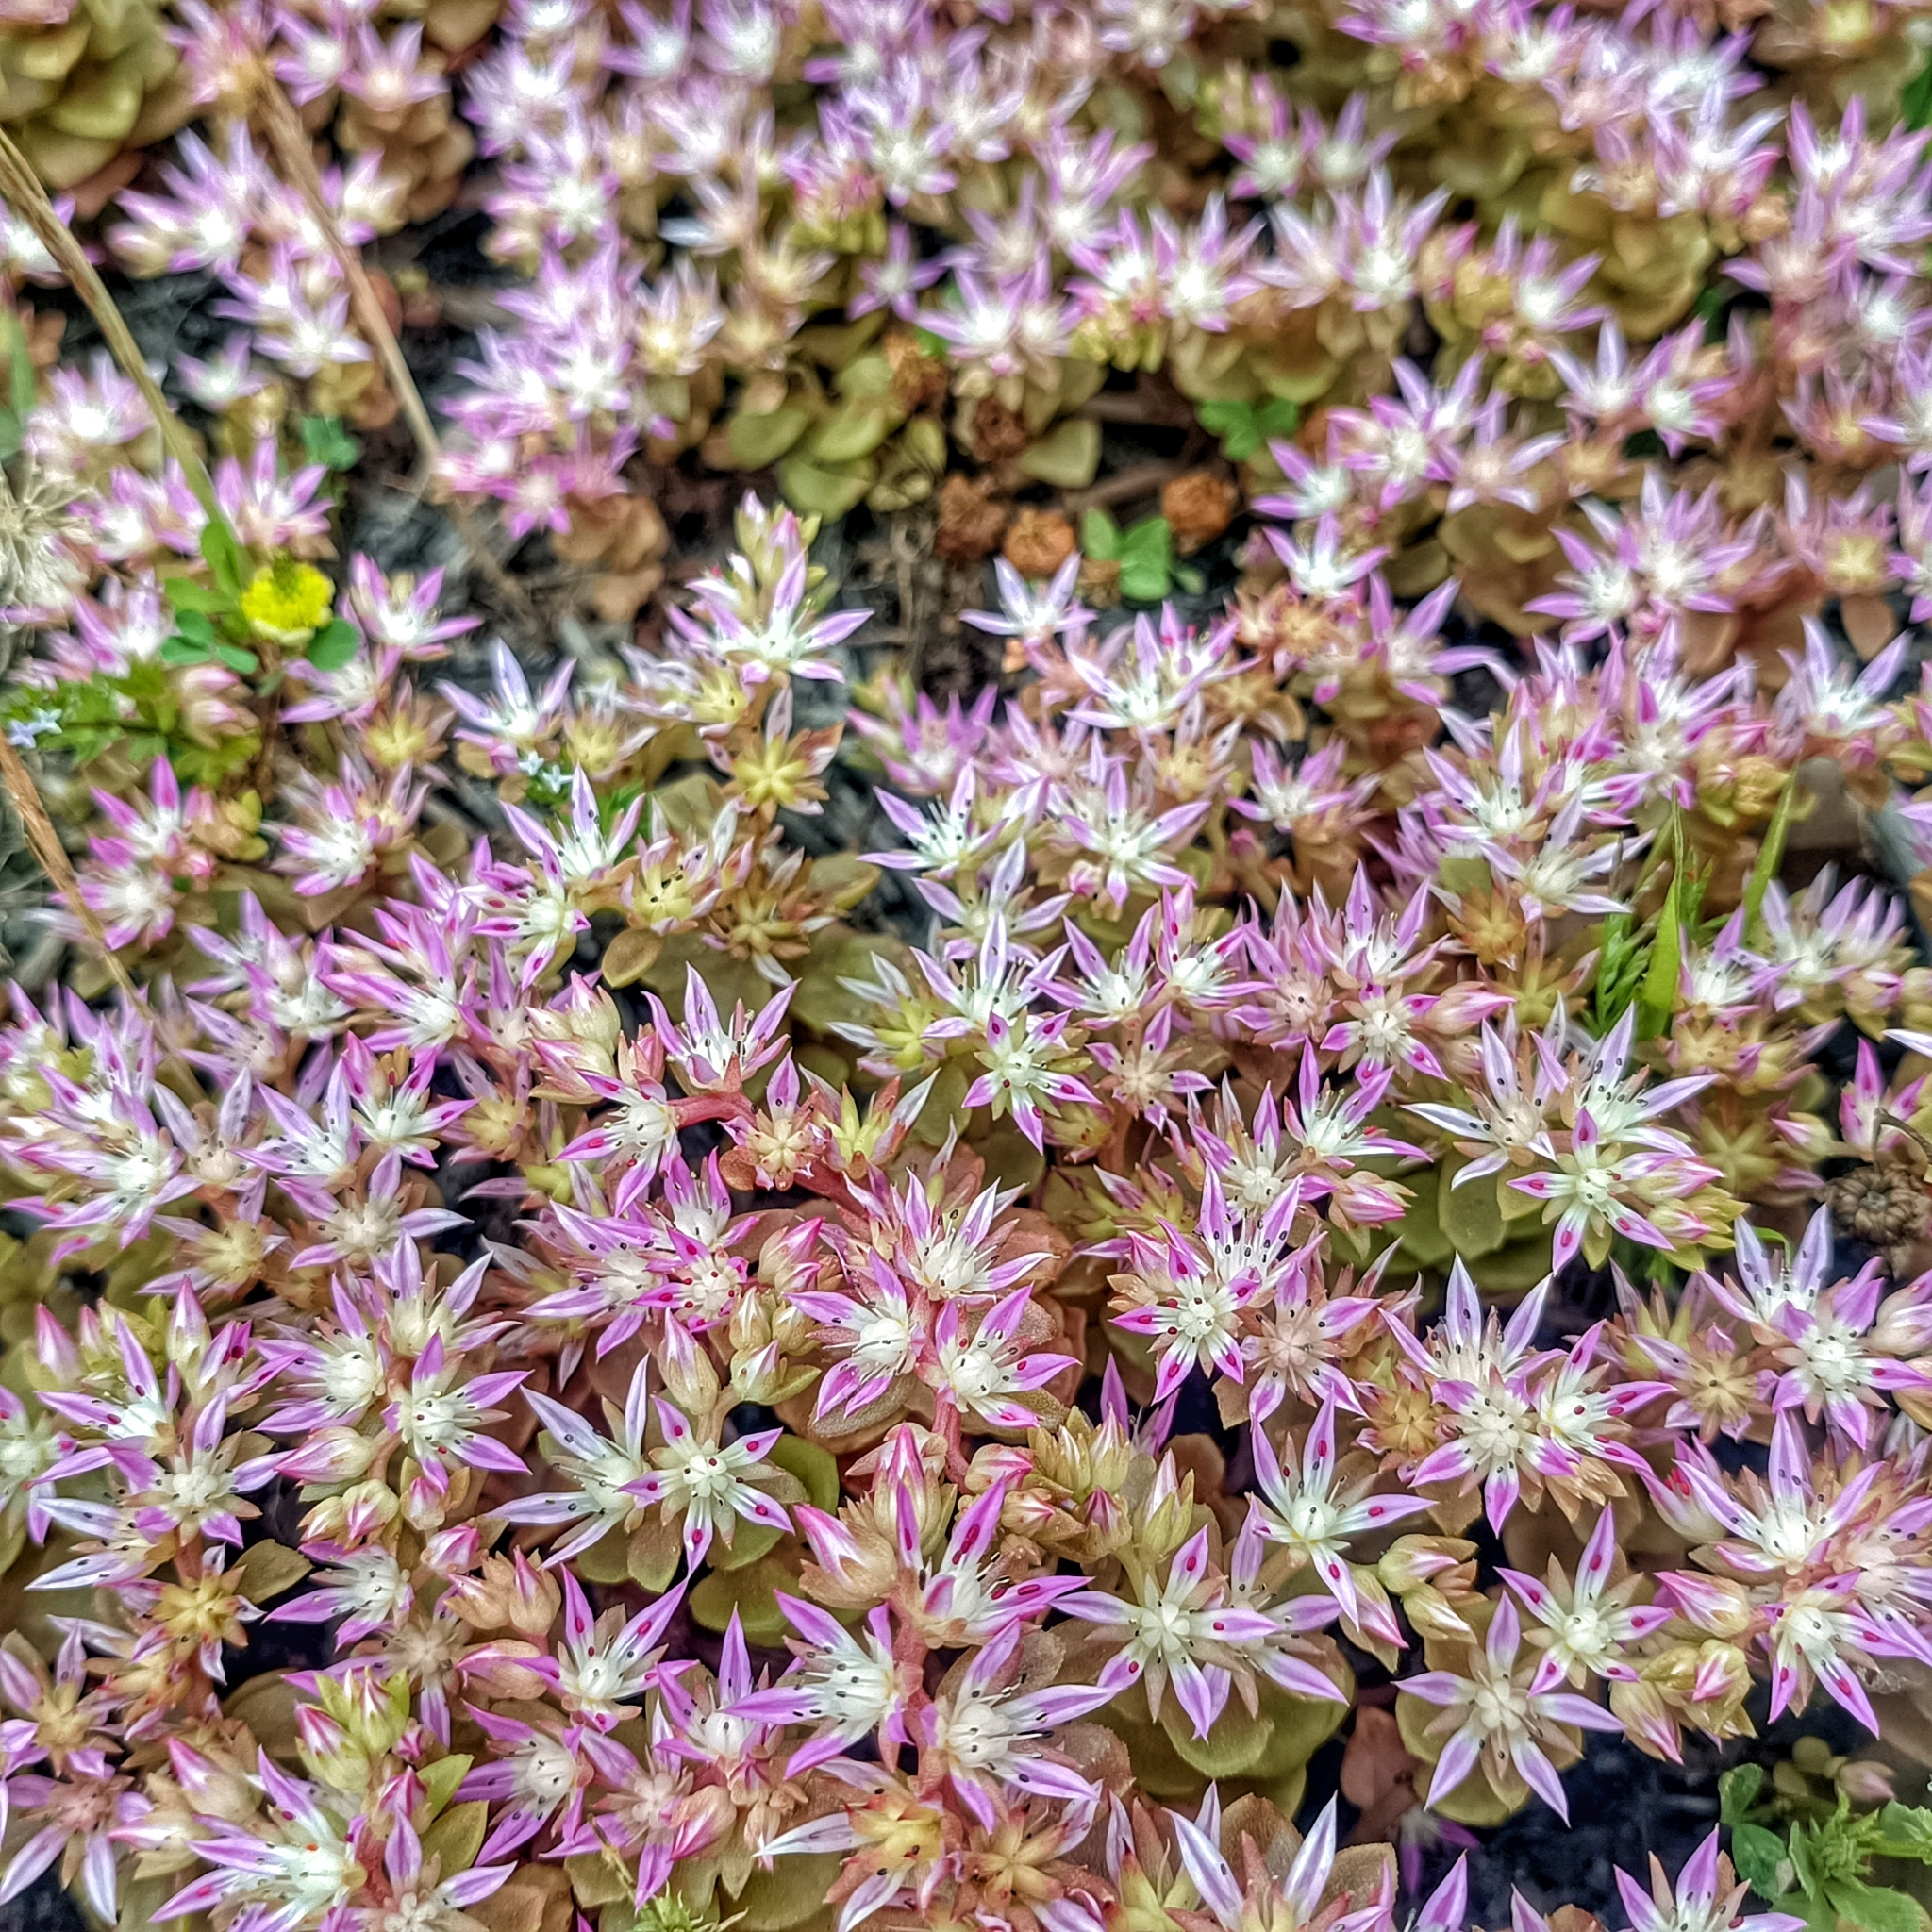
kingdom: Plantae
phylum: Tracheophyta
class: Magnoliopsida
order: Saxifragales
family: Crassulaceae
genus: Phedimus
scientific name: Phedimus stellatus
